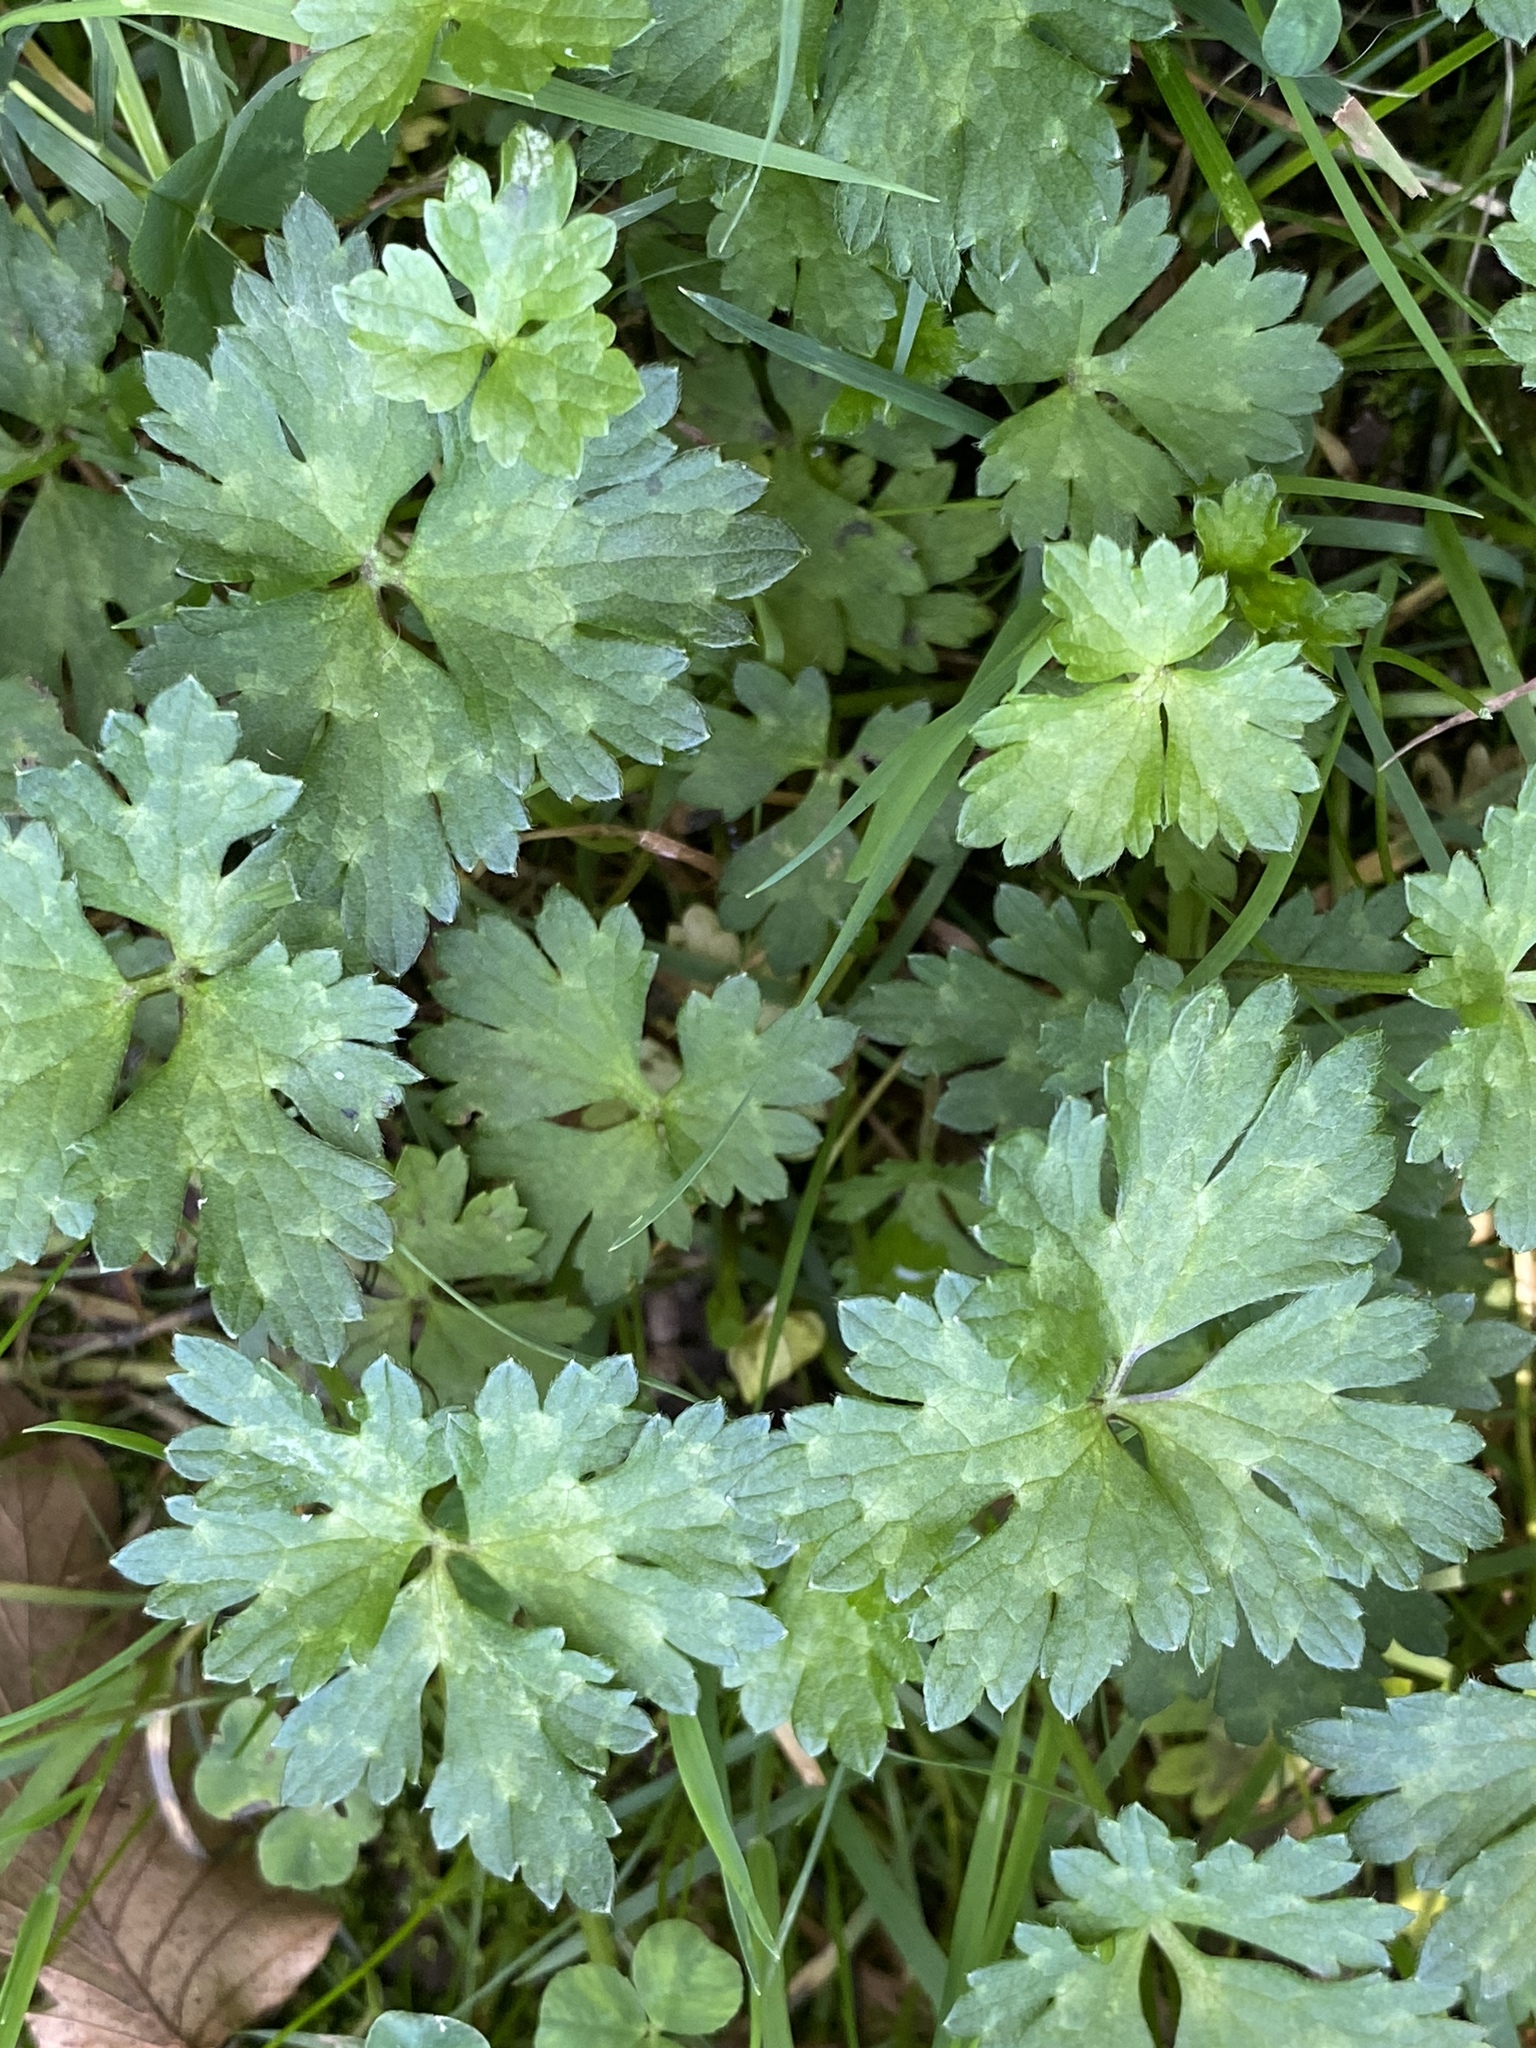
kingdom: Plantae
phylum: Tracheophyta
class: Magnoliopsida
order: Ranunculales
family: Ranunculaceae
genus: Ranunculus
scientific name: Ranunculus repens
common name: Creeping buttercup
